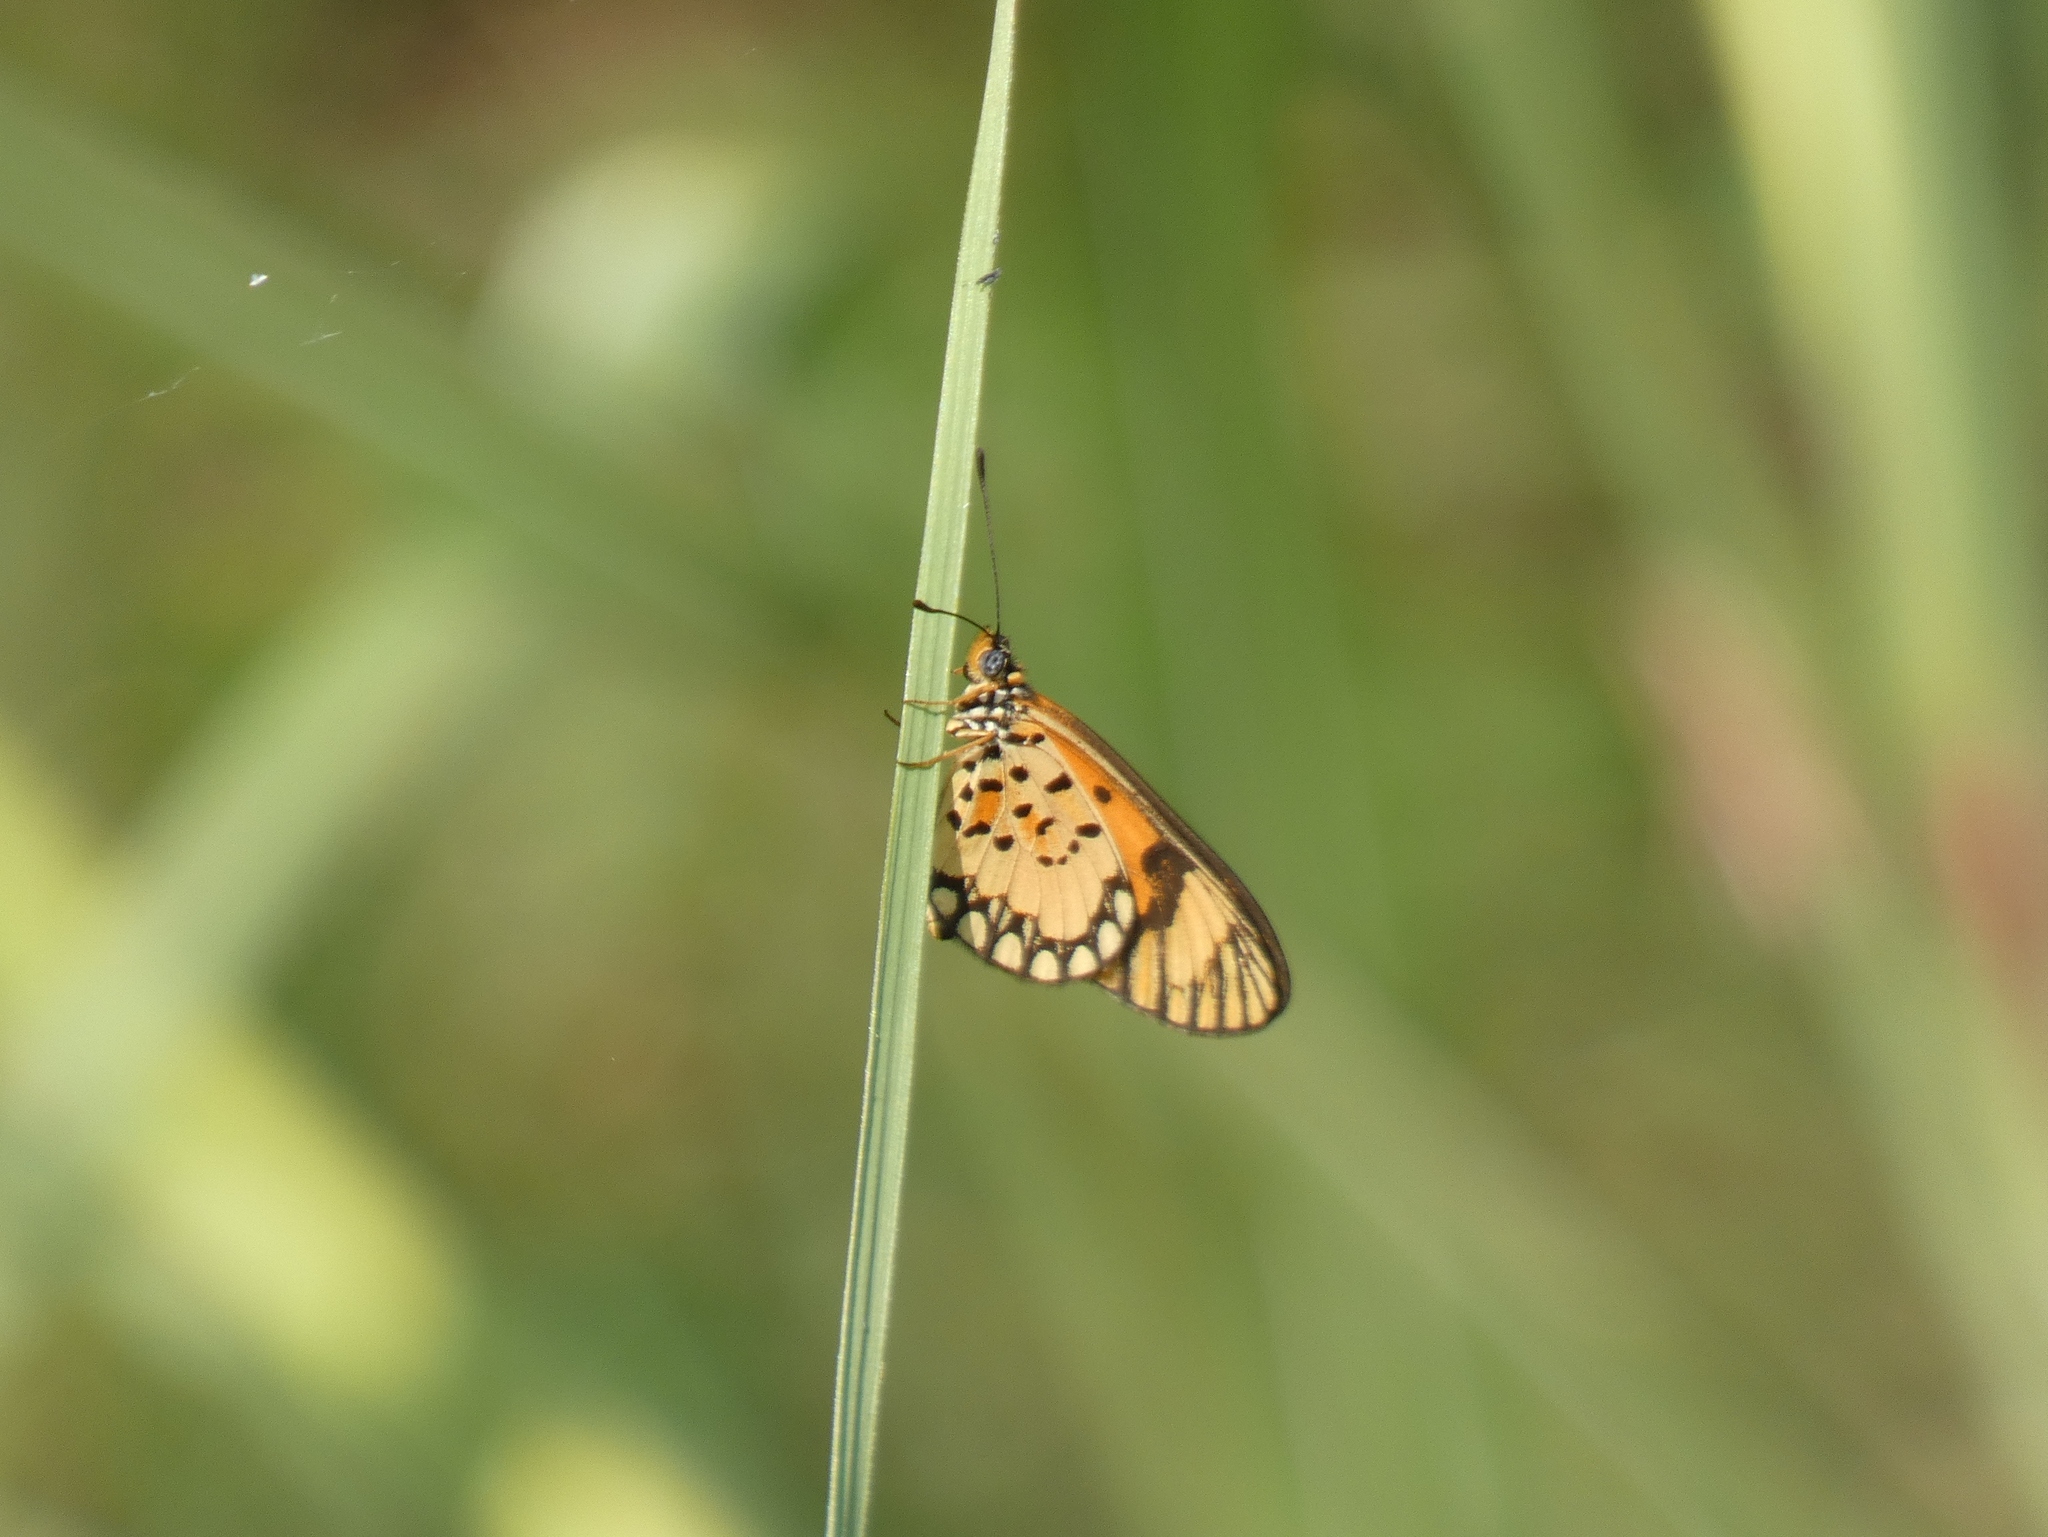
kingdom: Animalia
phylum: Arthropoda
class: Insecta
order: Lepidoptera
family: Nymphalidae
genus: Acraea
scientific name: Acraea Telchinia serena
